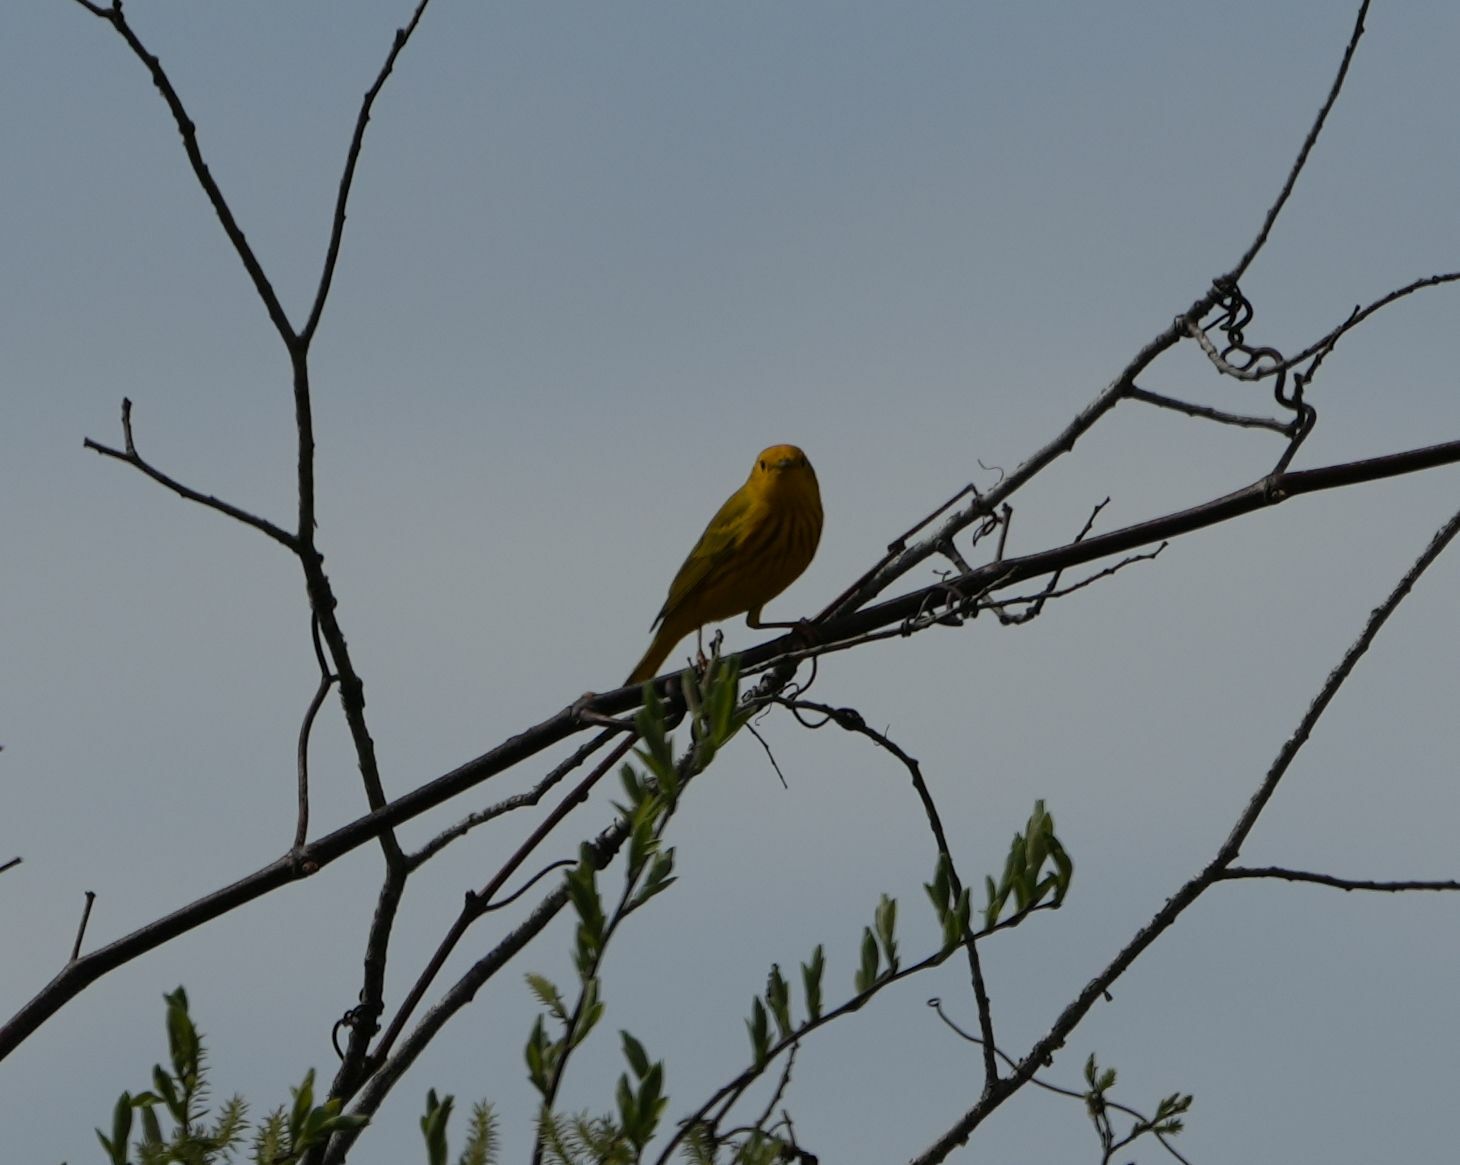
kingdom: Animalia
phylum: Chordata
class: Aves
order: Passeriformes
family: Parulidae
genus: Setophaga
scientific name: Setophaga petechia
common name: Yellow warbler
